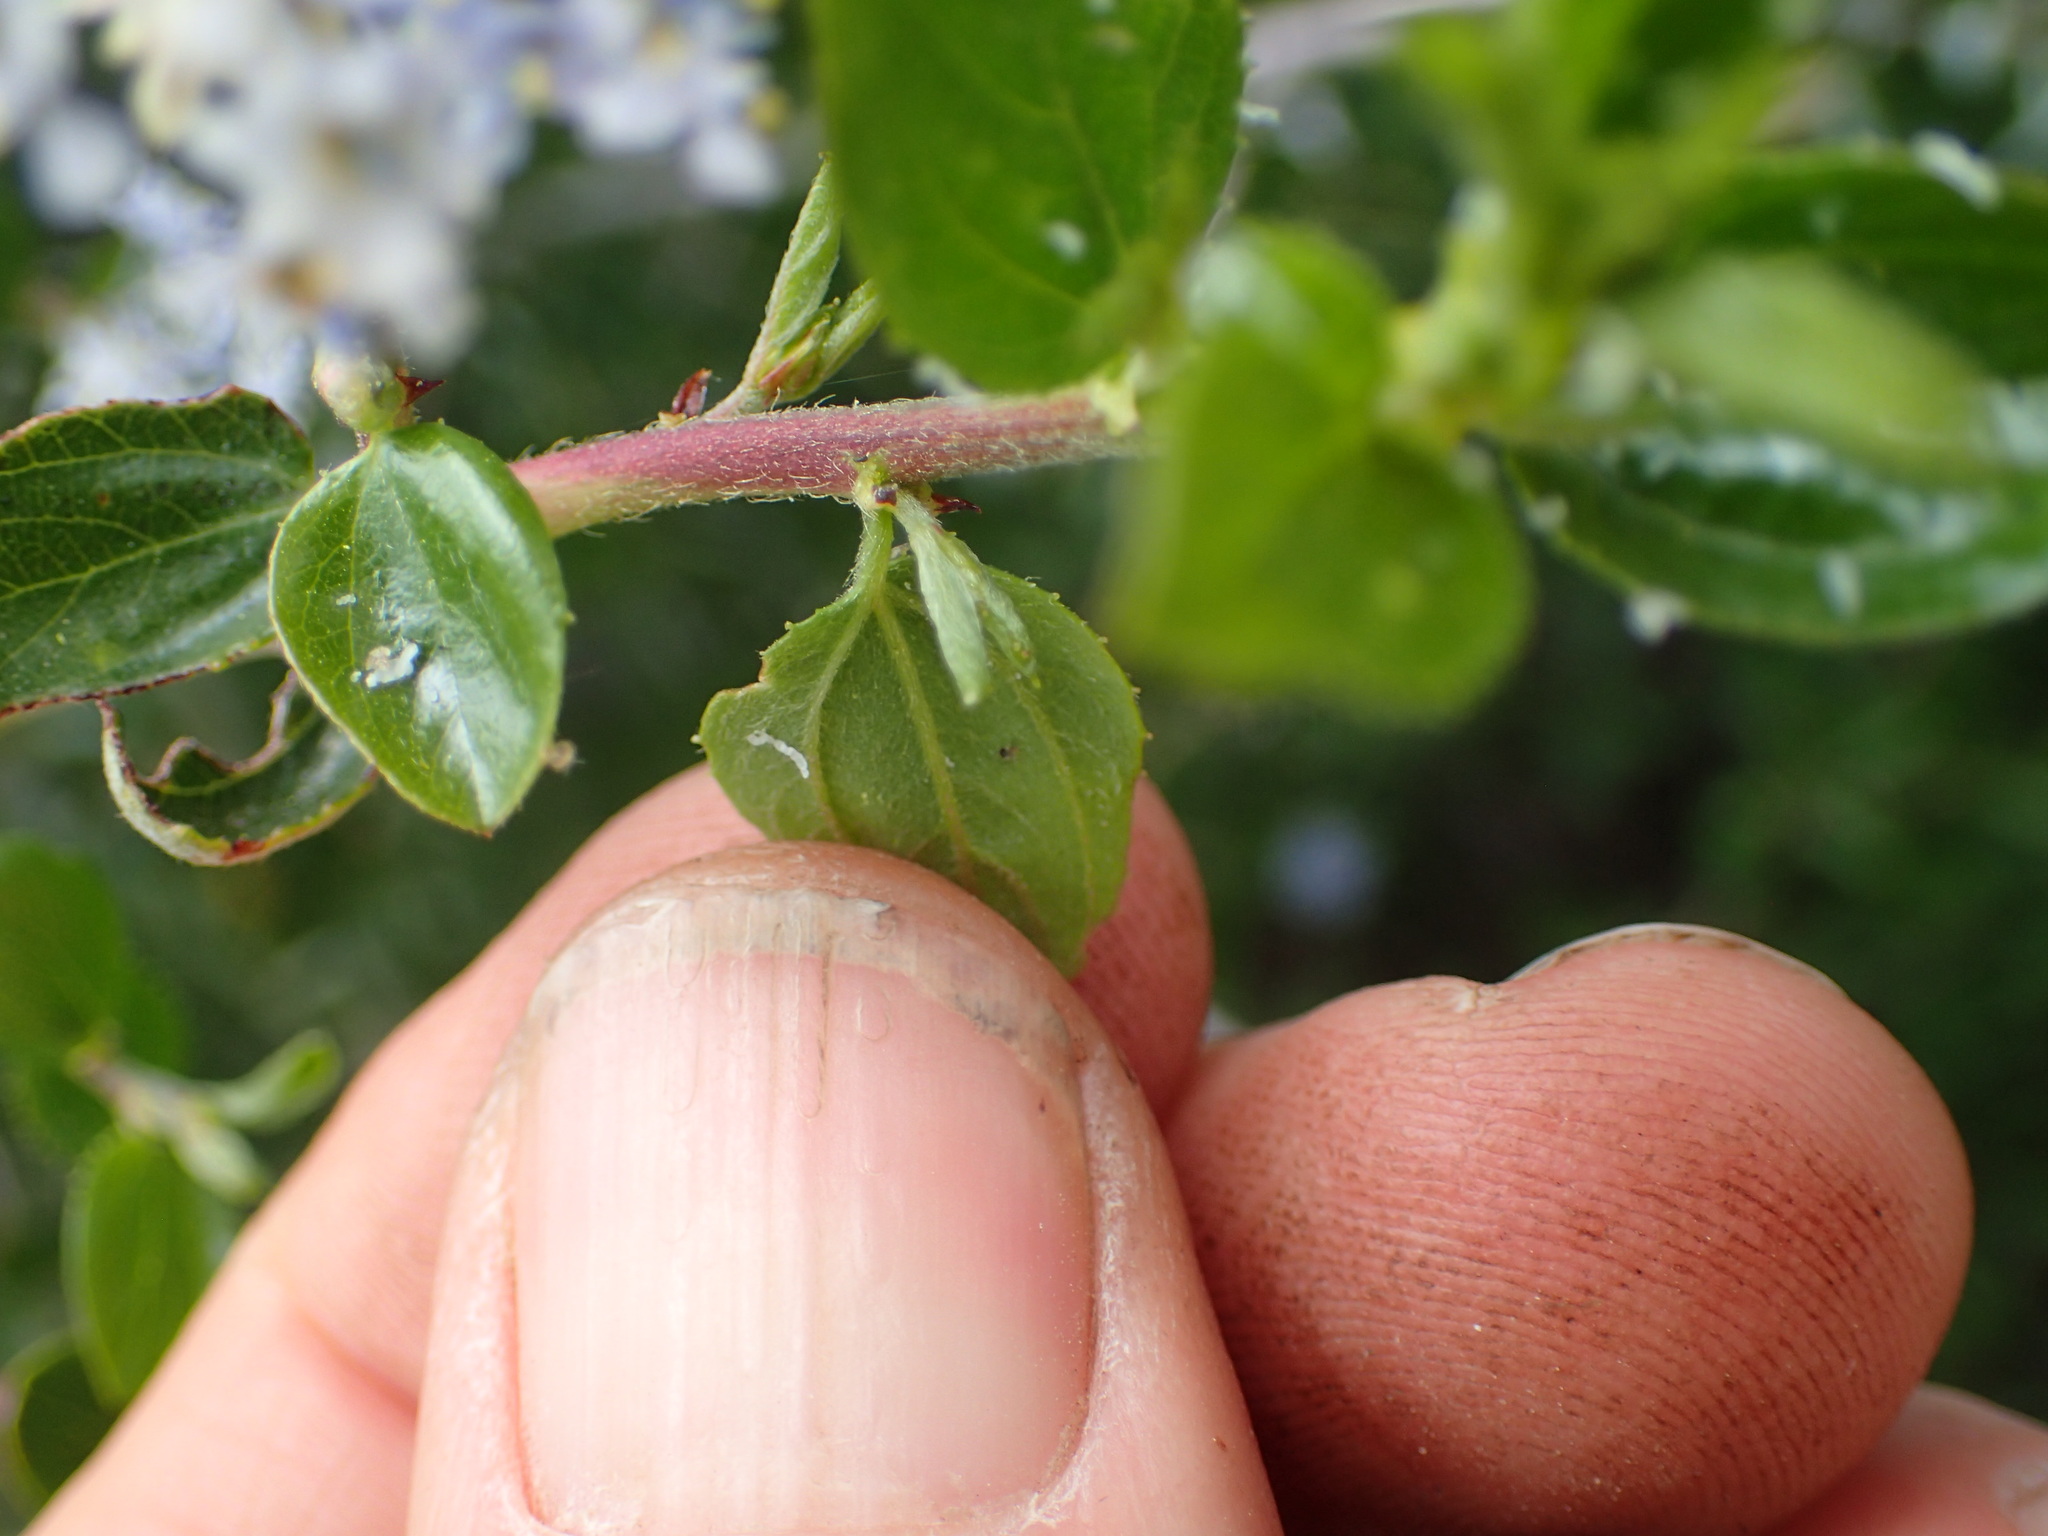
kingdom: Plantae
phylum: Tracheophyta
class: Magnoliopsida
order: Rosales
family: Rhamnaceae
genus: Ceanothus
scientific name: Ceanothus oliganthus
